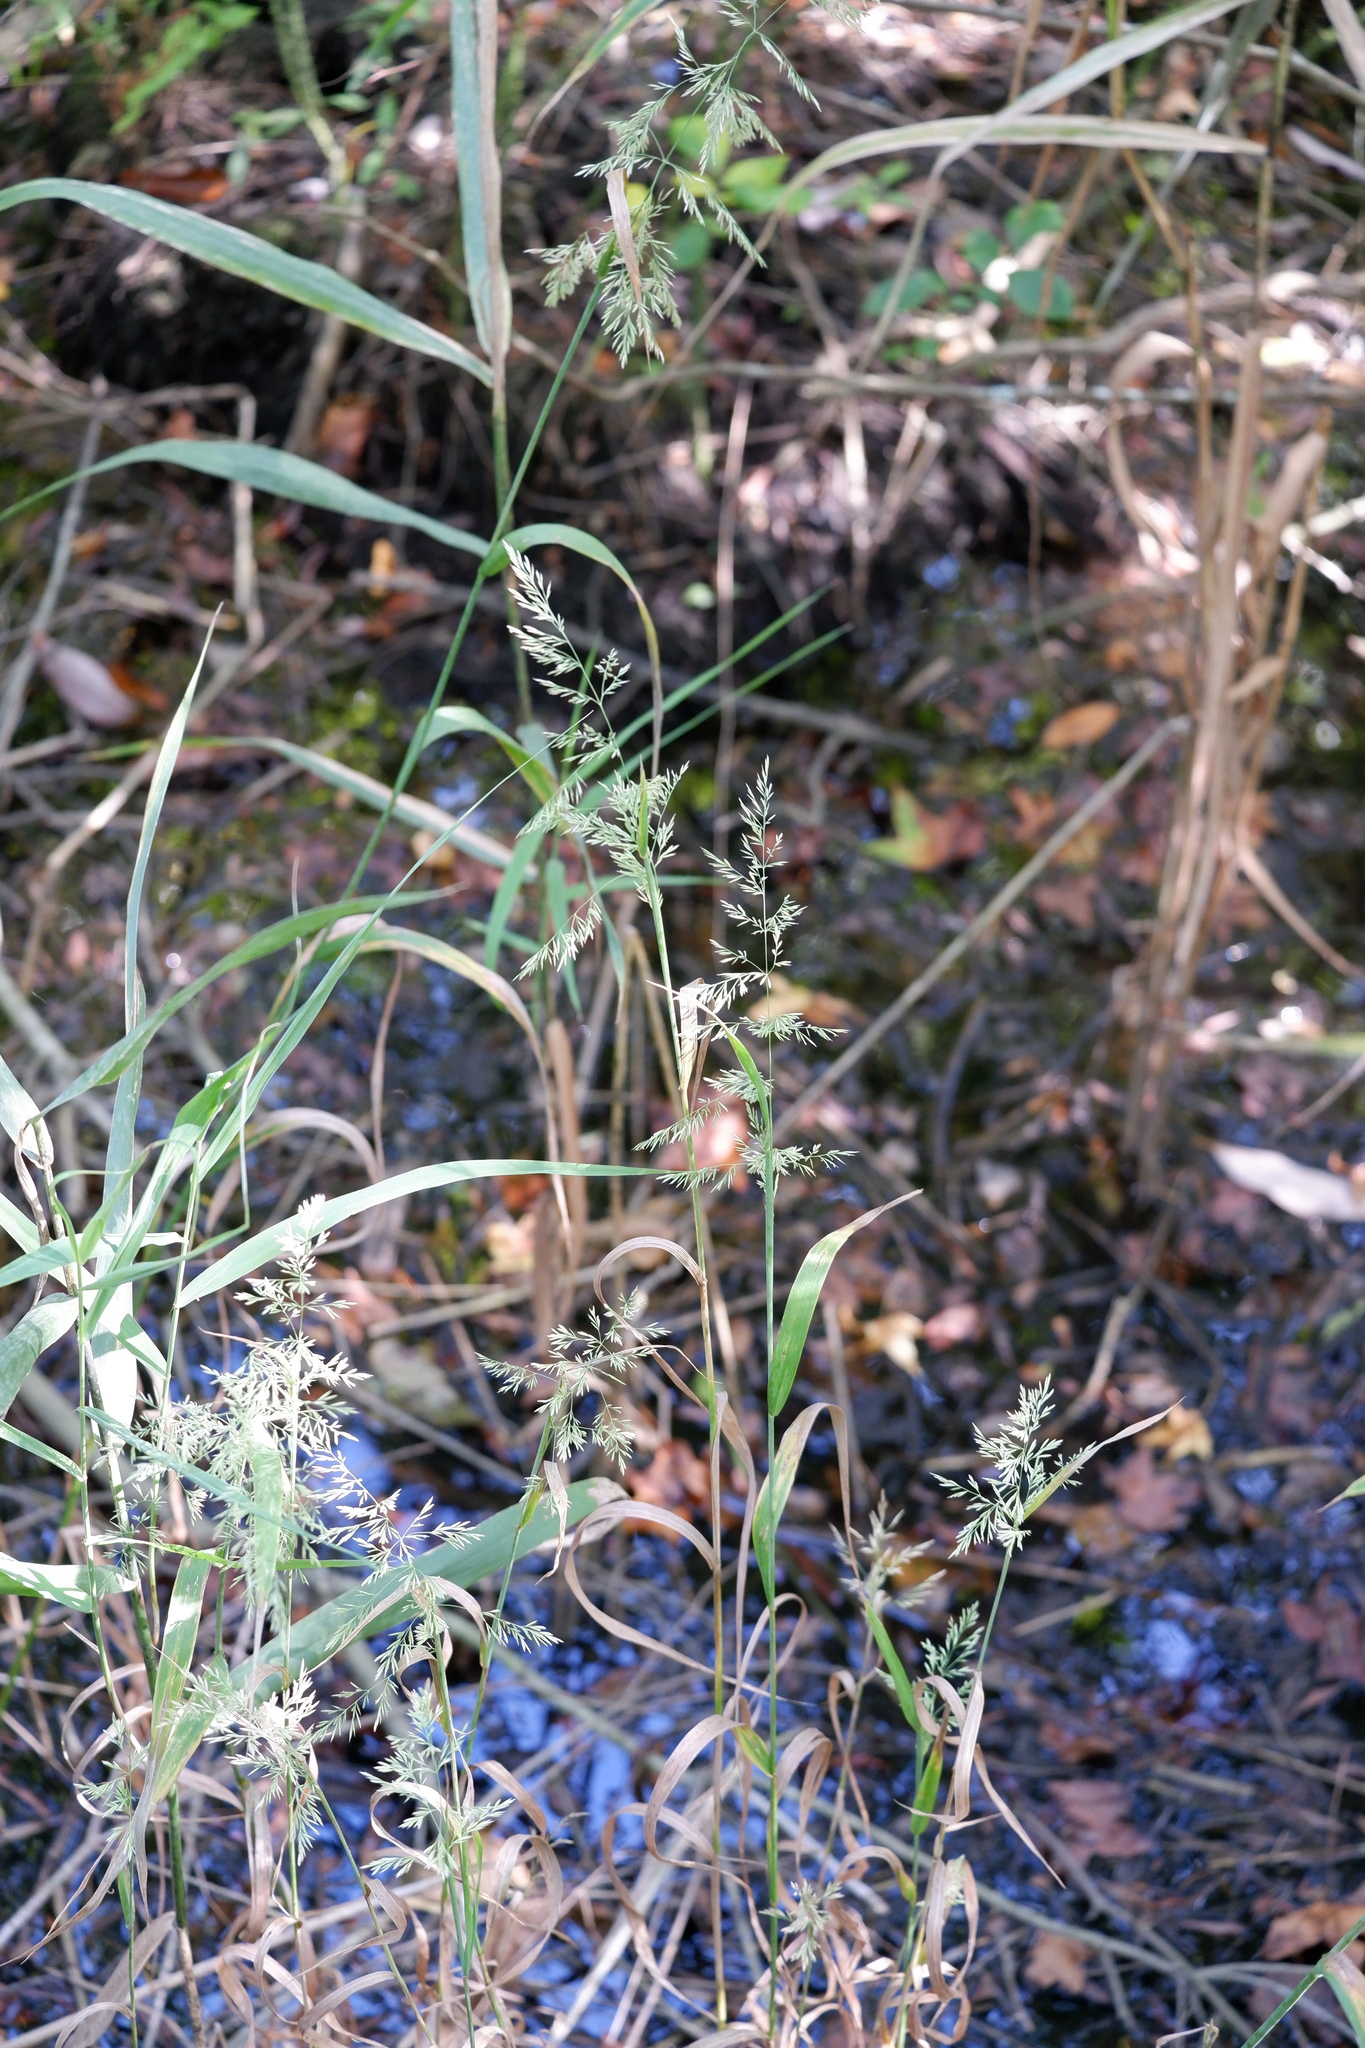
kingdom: Plantae
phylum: Tracheophyta
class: Liliopsida
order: Poales
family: Poaceae
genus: Cinna
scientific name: Cinna arundinacea
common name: Stout woodreed
